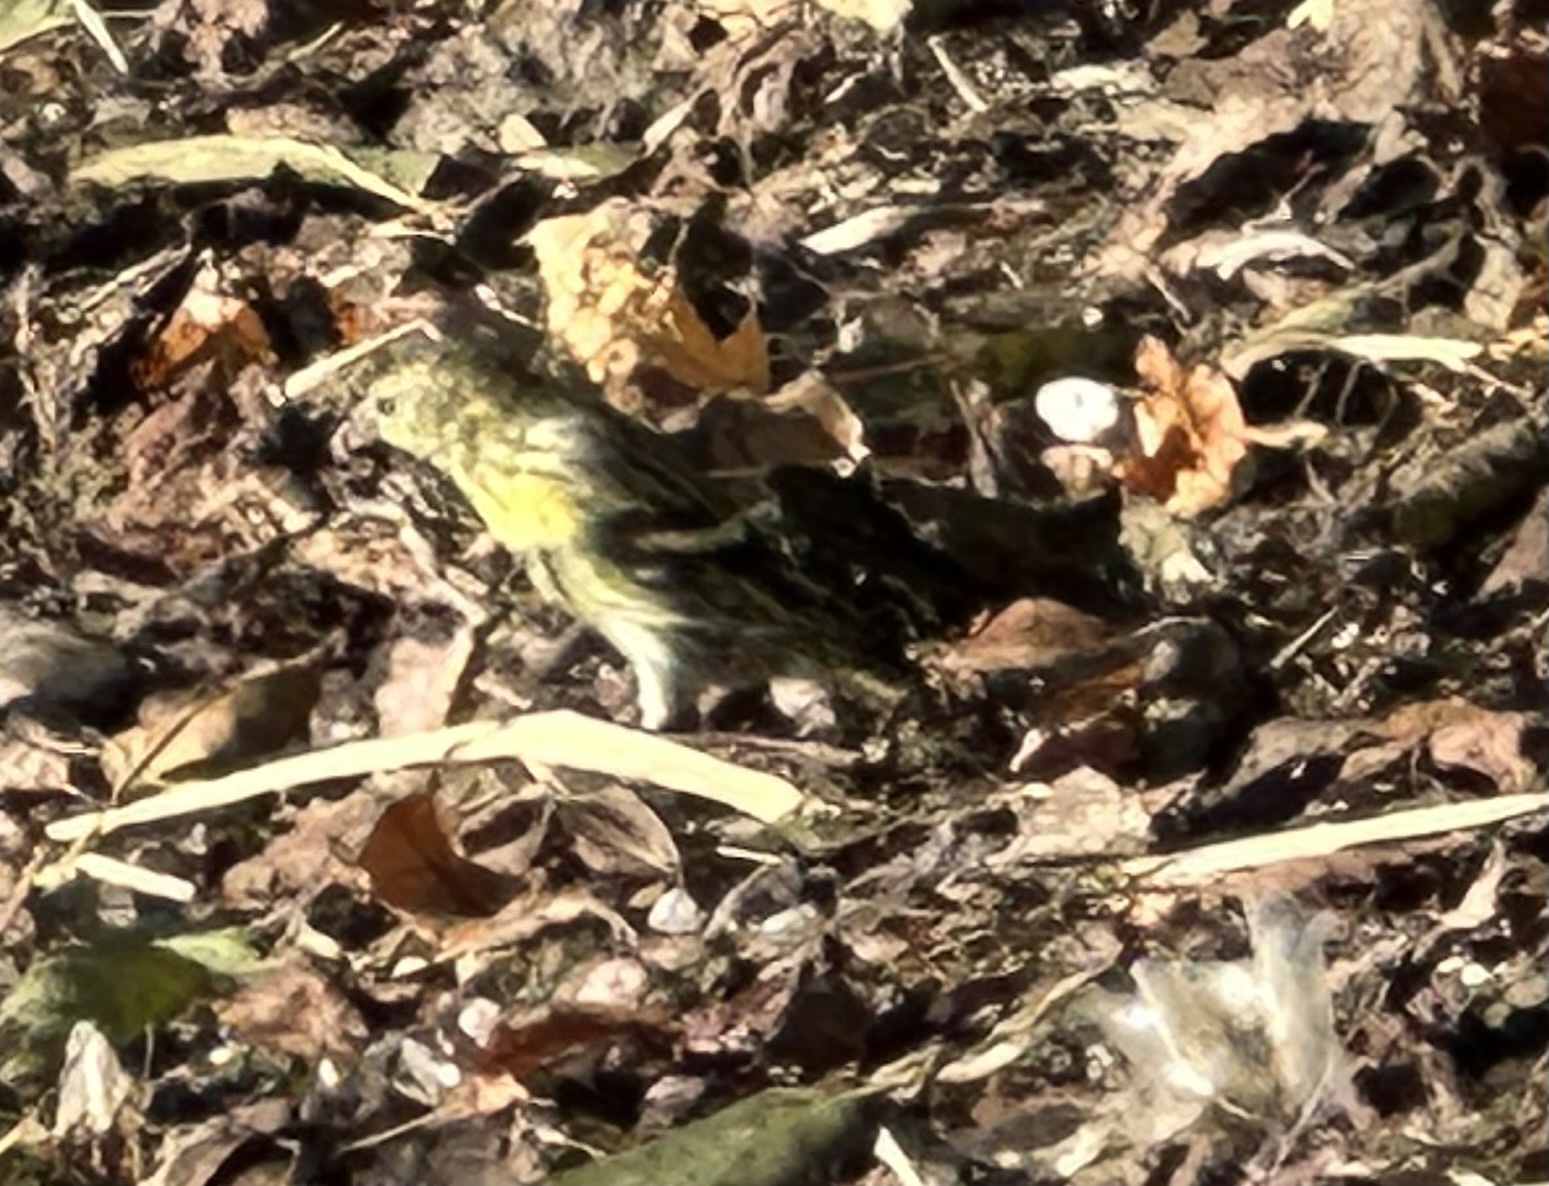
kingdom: Animalia
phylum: Chordata
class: Aves
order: Passeriformes
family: Fringillidae
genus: Spinus
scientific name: Spinus spinus
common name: Eurasian siskin
